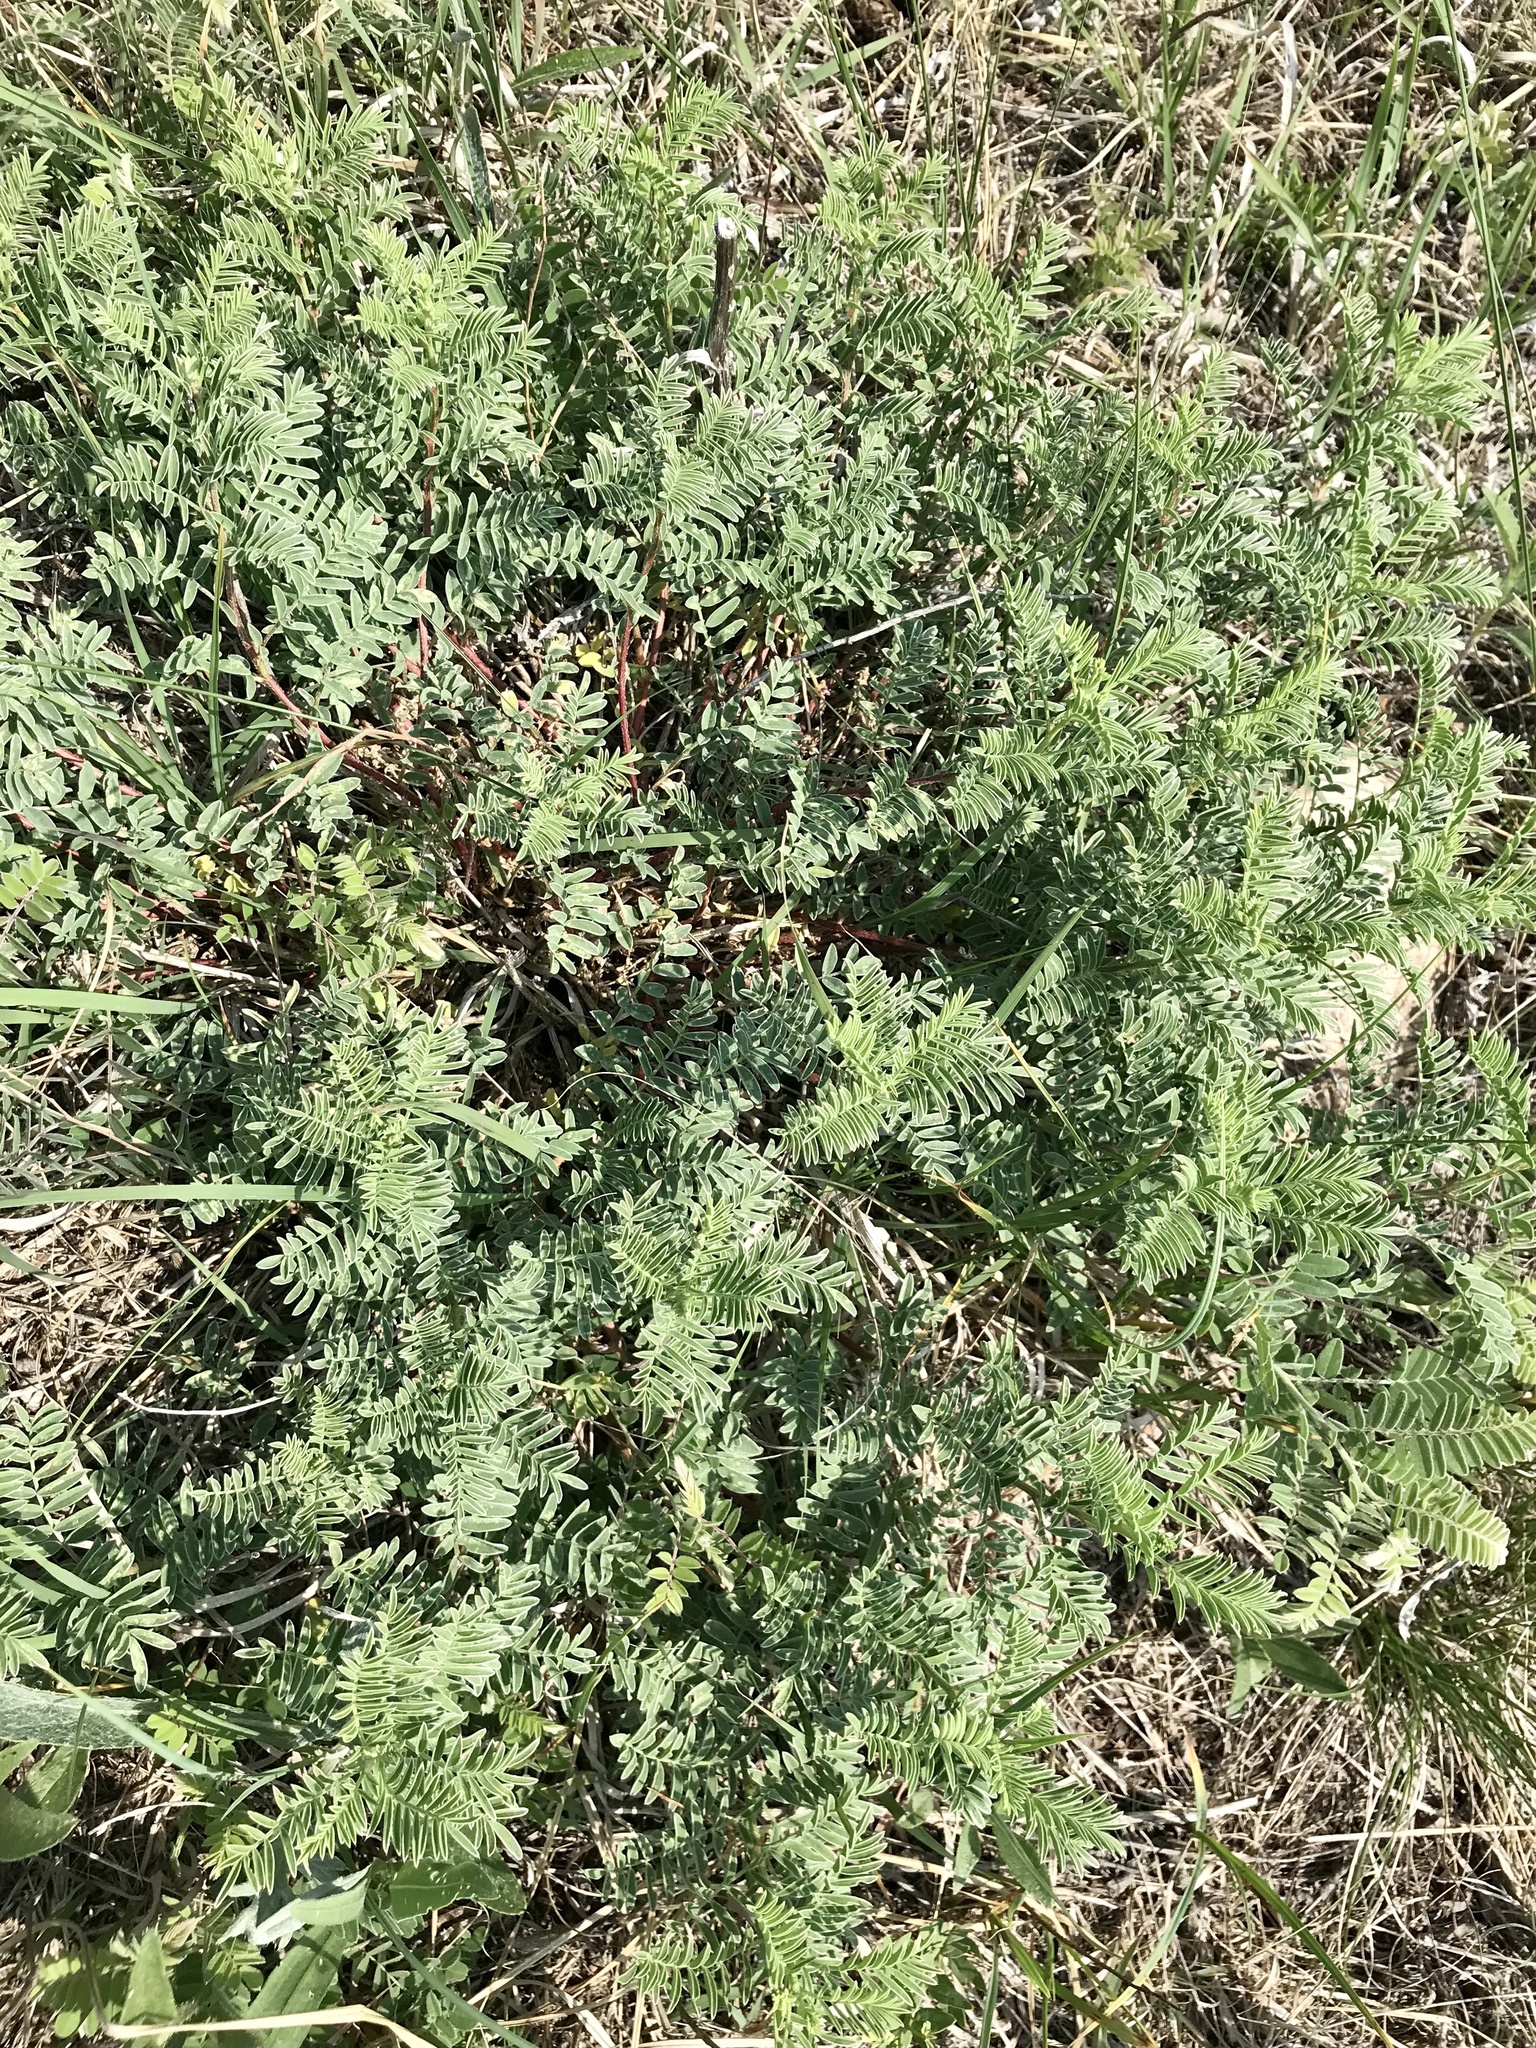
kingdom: Plantae
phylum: Tracheophyta
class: Magnoliopsida
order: Fabales
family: Fabaceae
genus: Astragalus
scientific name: Astragalus crassicarpus
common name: Ground-plum milk-vetch
